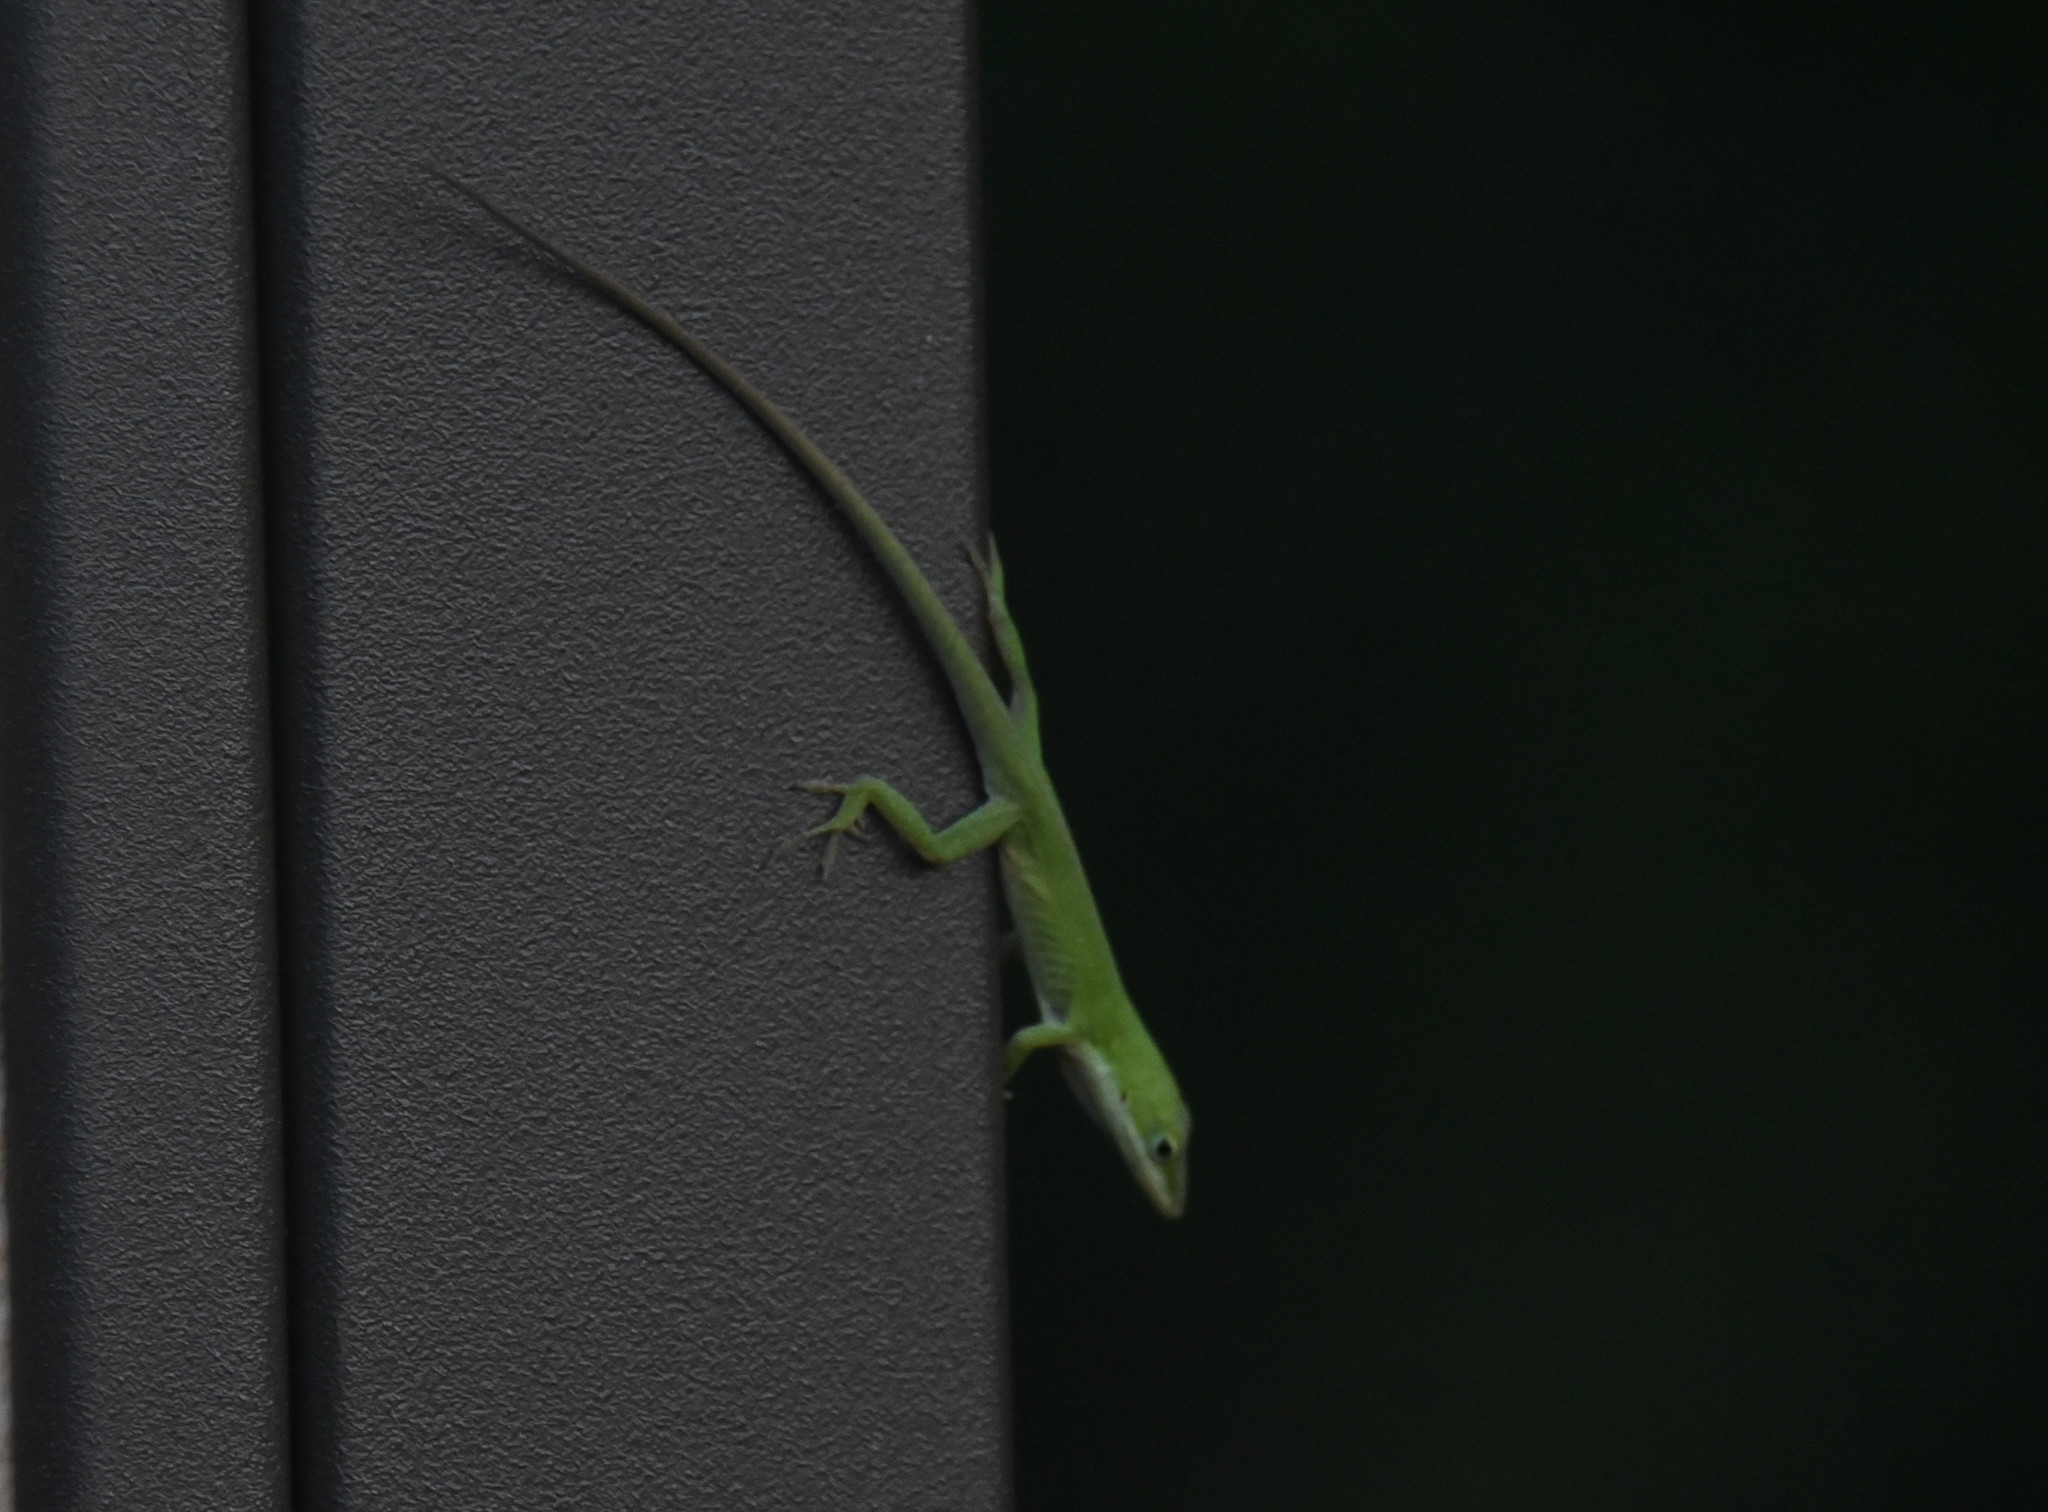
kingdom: Animalia
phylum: Chordata
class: Squamata
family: Dactyloidae
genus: Anolis
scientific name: Anolis carolinensis
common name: Green anole
